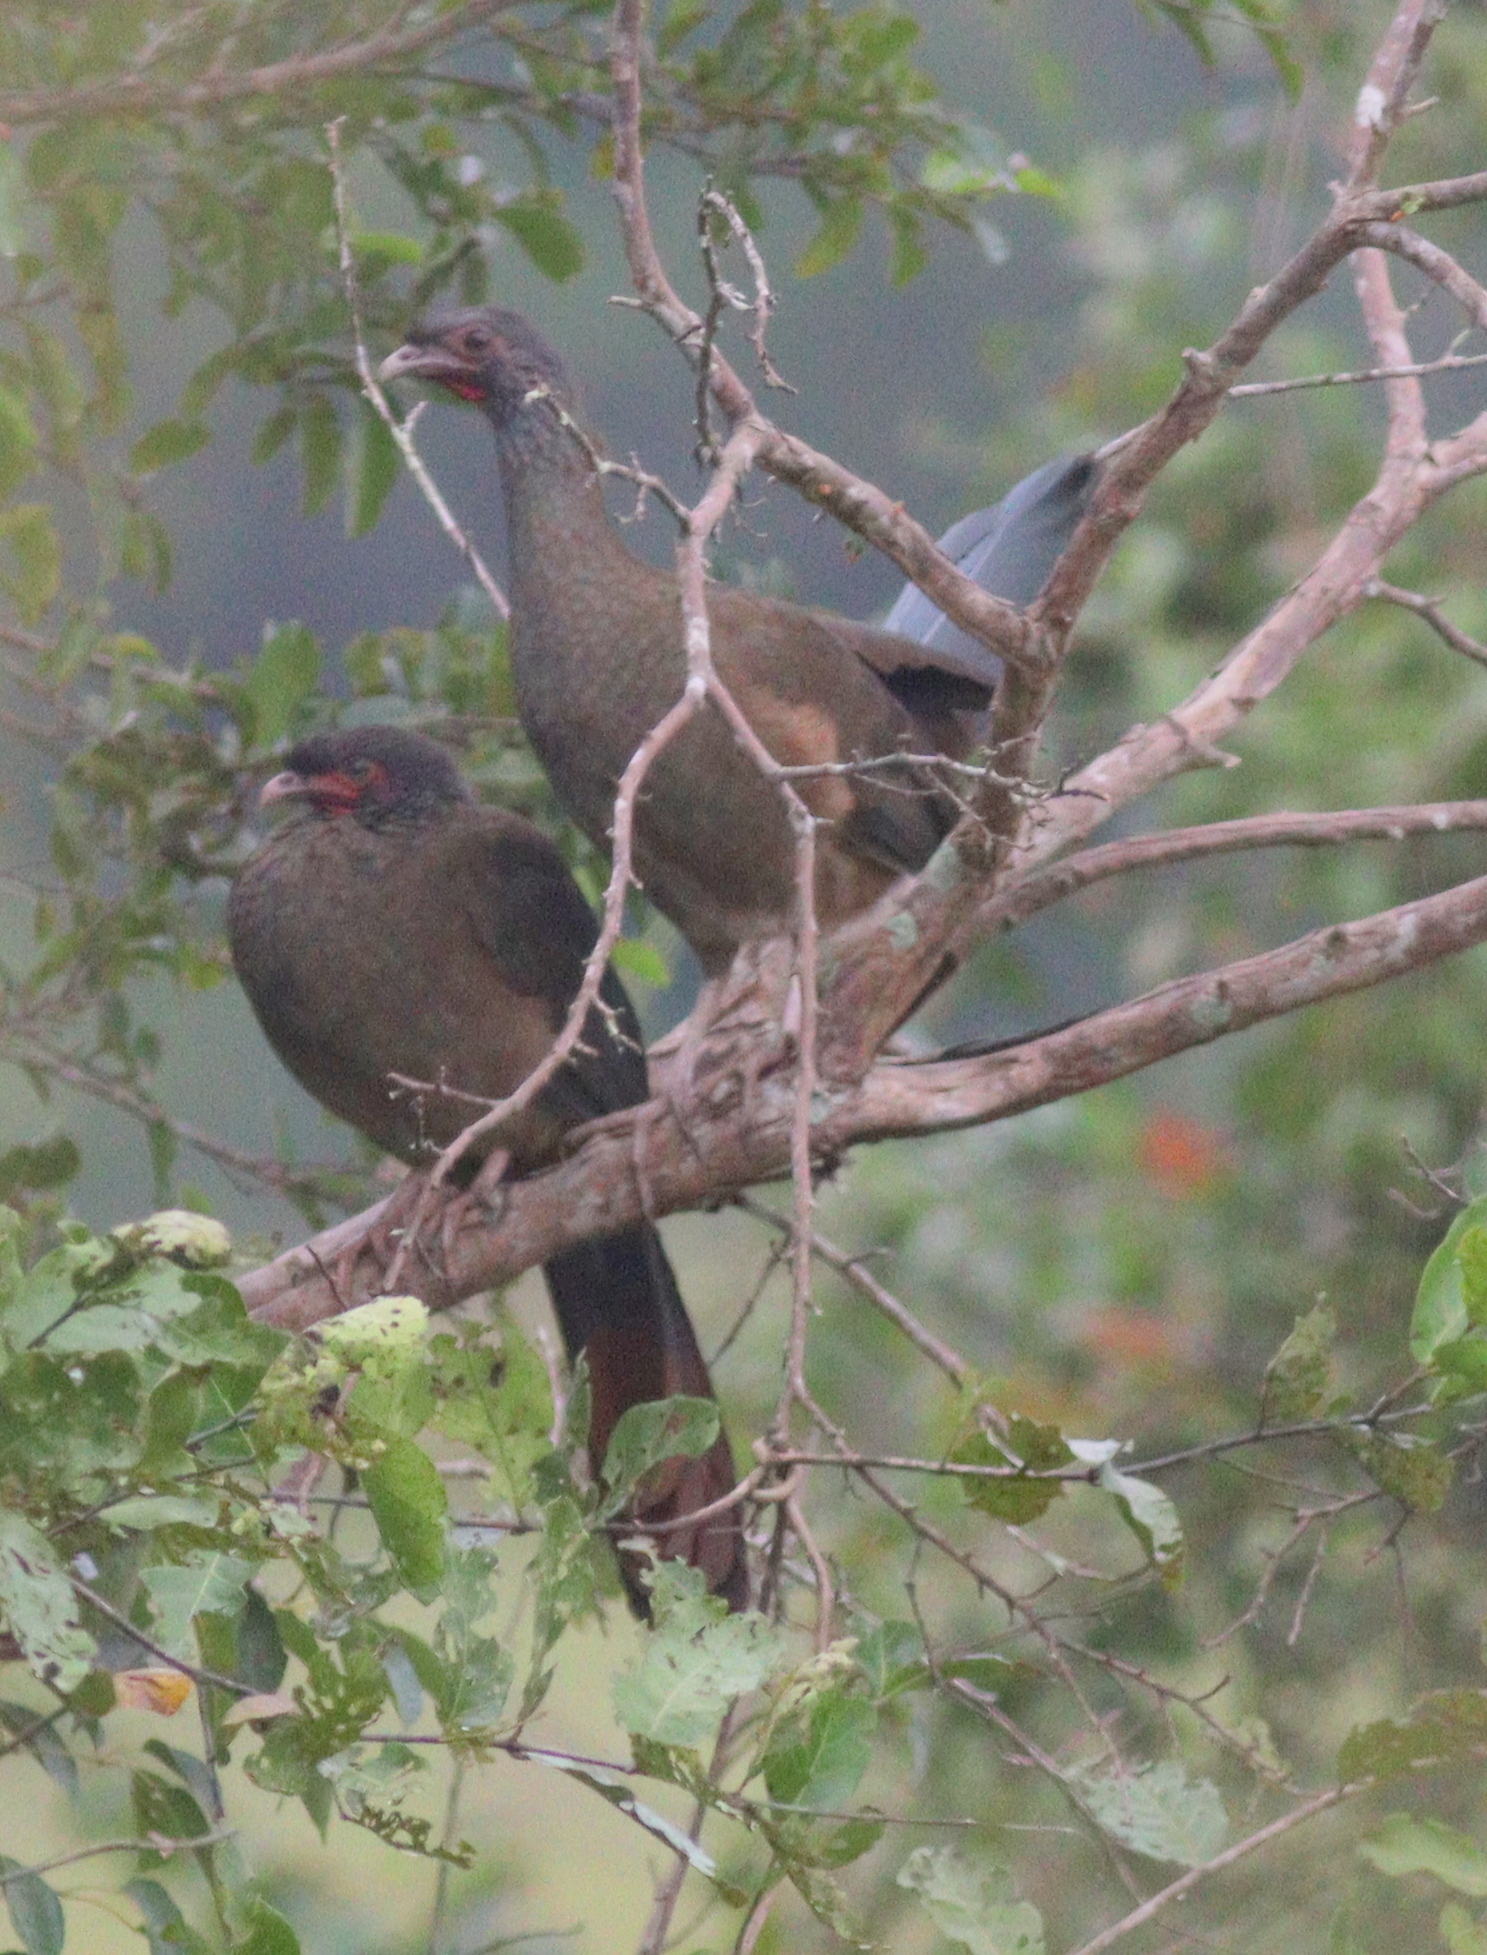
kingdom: Animalia
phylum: Chordata
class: Aves
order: Galliformes
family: Cracidae
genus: Ortalis
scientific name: Ortalis canicollis
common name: Chaco chachalaca
